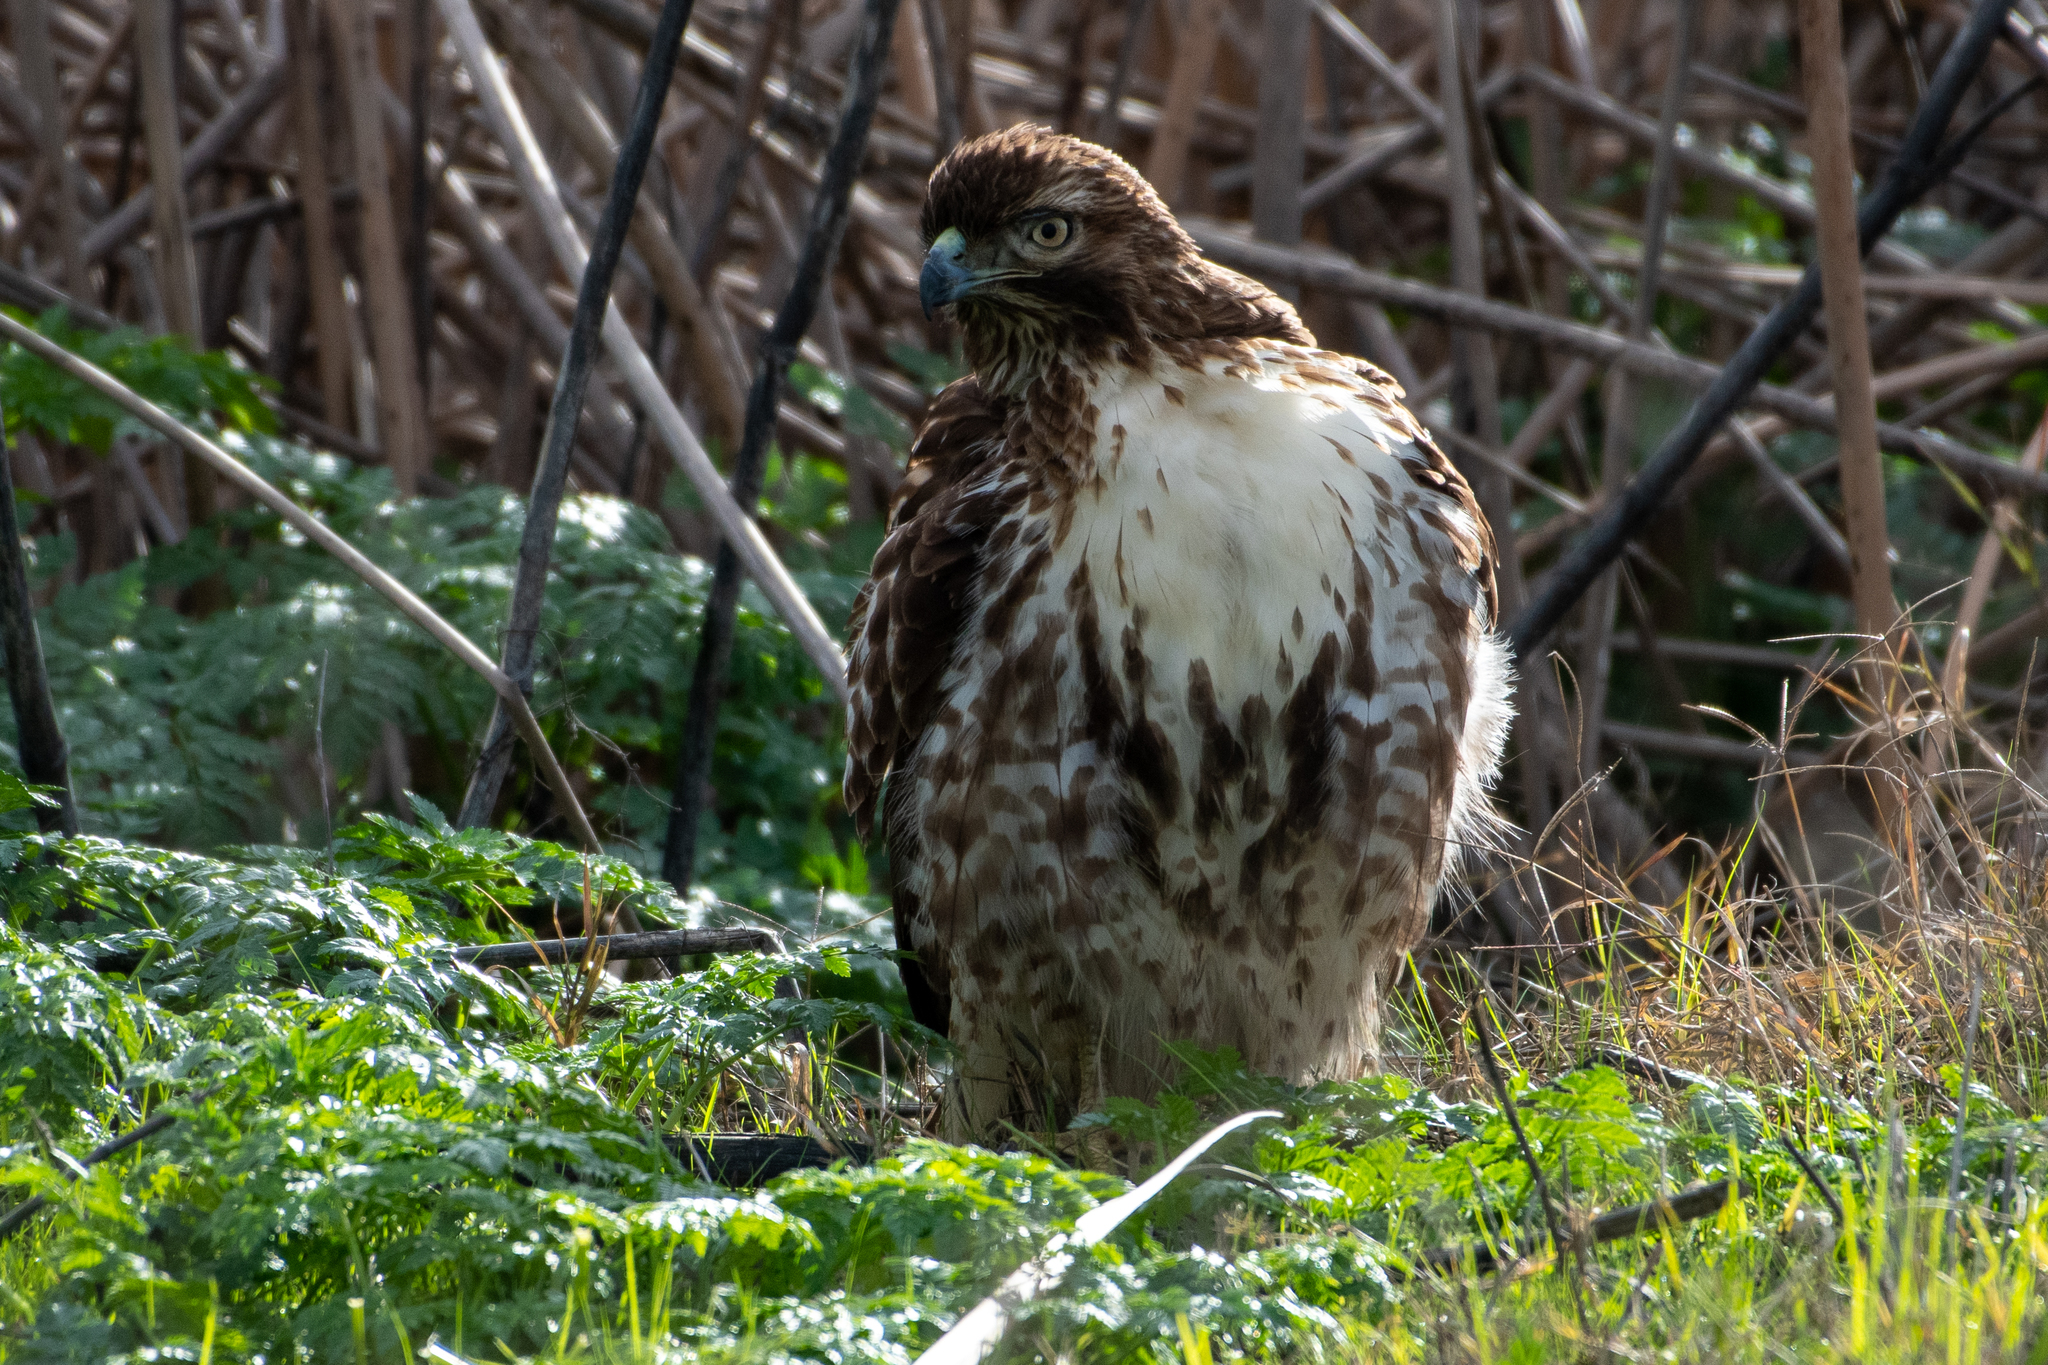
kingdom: Animalia
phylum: Chordata
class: Aves
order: Accipitriformes
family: Accipitridae
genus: Buteo
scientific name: Buteo jamaicensis
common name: Red-tailed hawk
